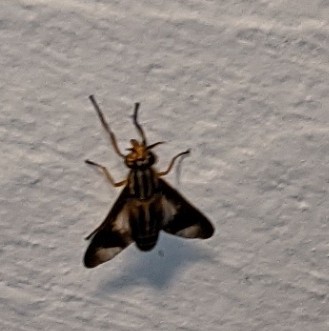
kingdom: Animalia
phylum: Arthropoda
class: Insecta
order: Diptera
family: Tabanidae
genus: Chrysops
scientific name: Chrysops vittatus
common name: Striped deer fly
